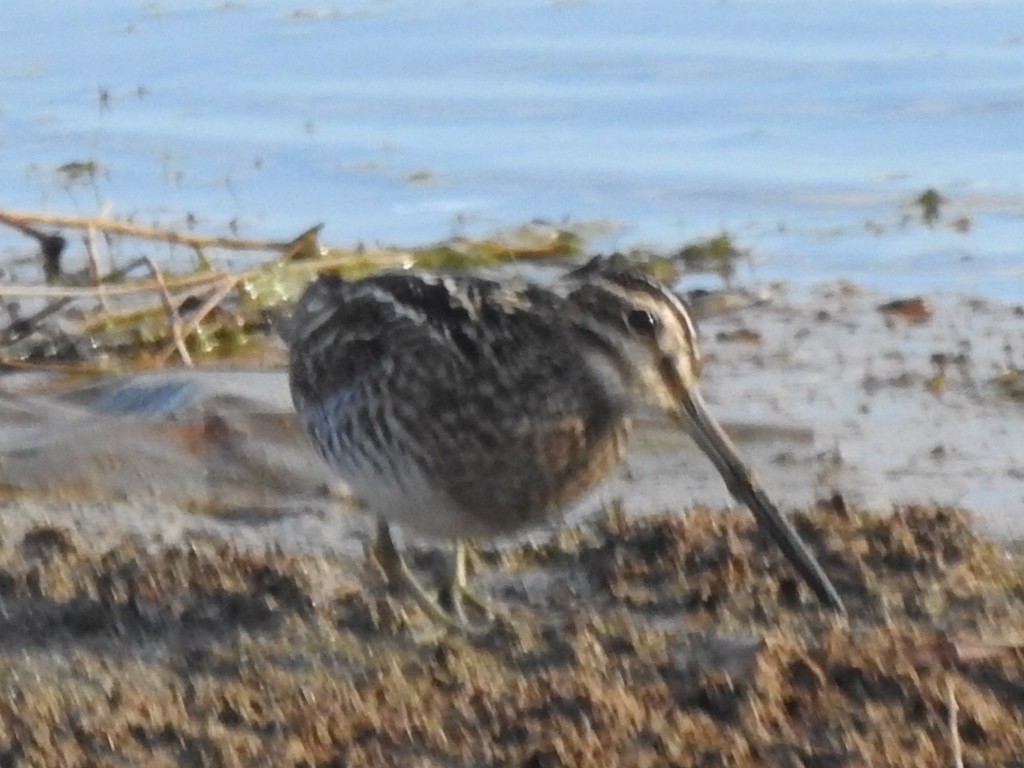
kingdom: Animalia
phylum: Chordata
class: Aves
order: Charadriiformes
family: Scolopacidae
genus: Gallinago
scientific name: Gallinago delicata
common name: Wilson's snipe
